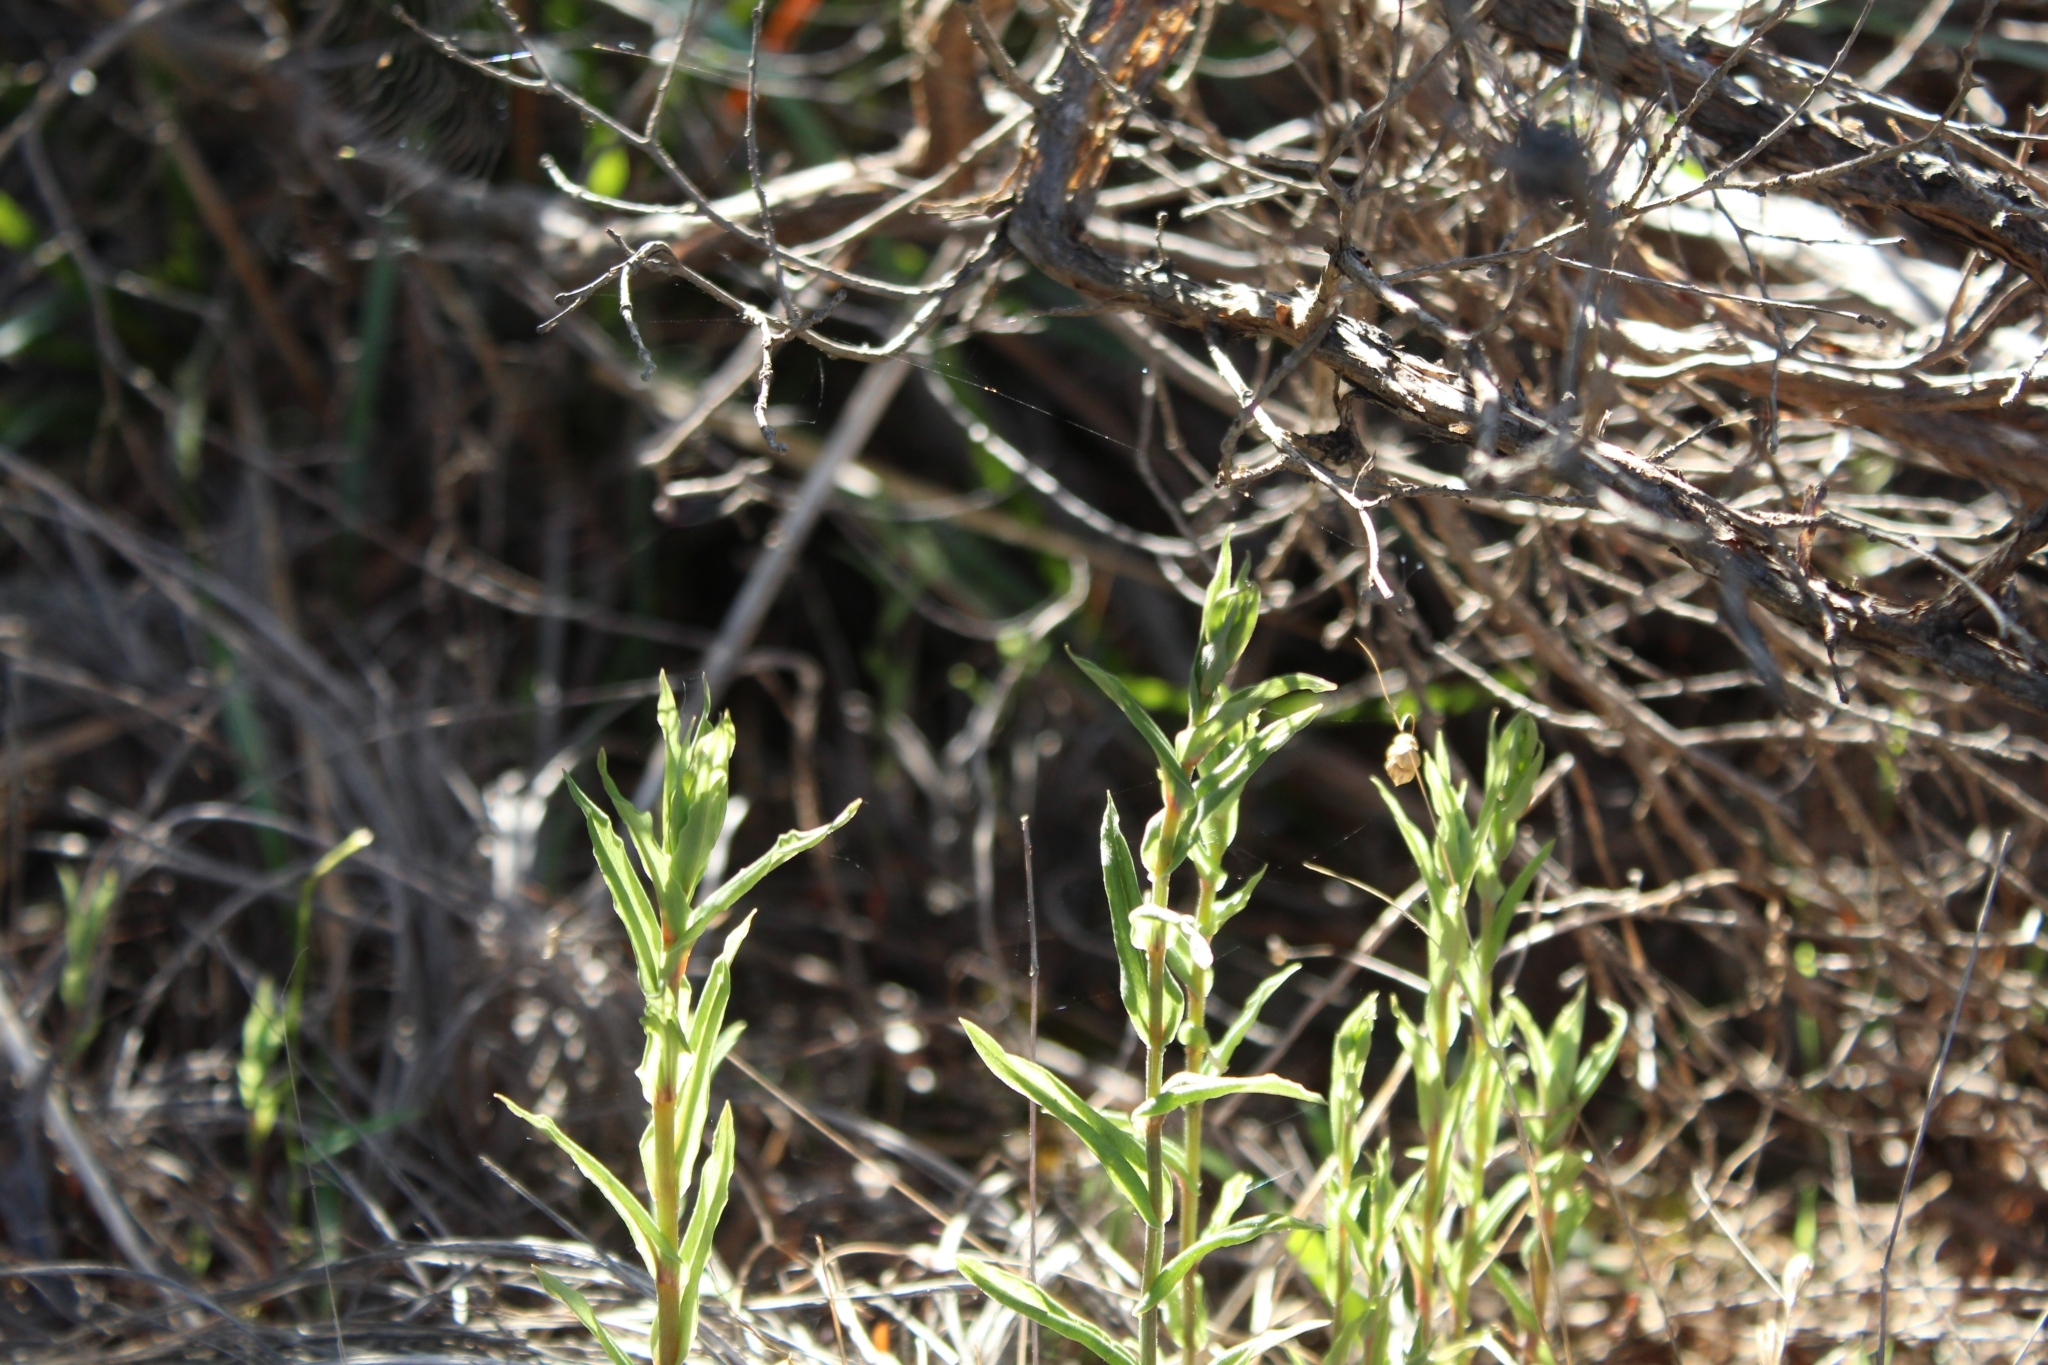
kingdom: Plantae
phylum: Tracheophyta
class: Liliopsida
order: Asparagales
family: Orchidaceae
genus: Pterostylis
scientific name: Pterostylis vittata
